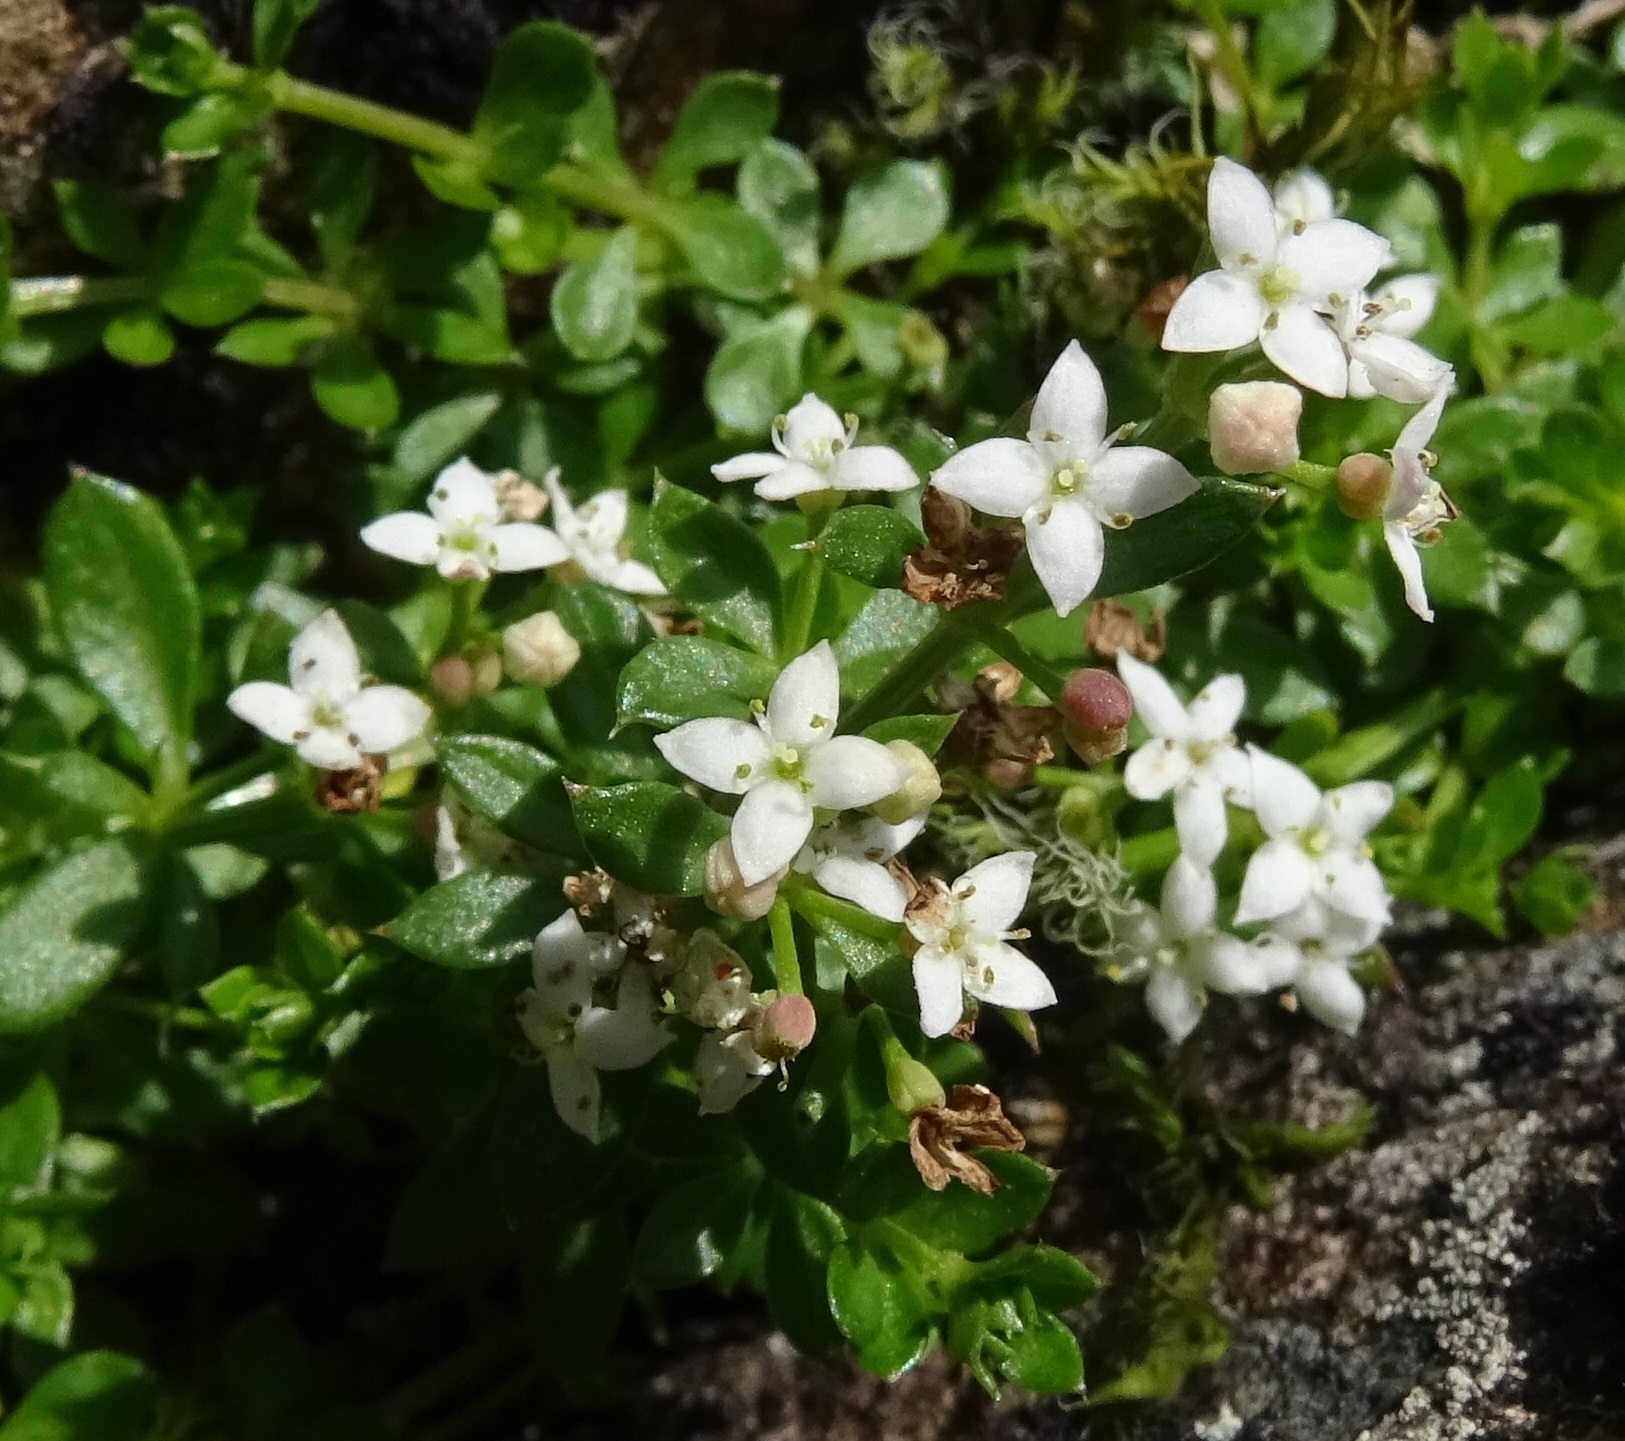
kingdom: Plantae
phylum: Tracheophyta
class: Magnoliopsida
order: Gentianales
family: Rubiaceae
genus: Galium
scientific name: Galium saxatile
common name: Heath bedstraw
